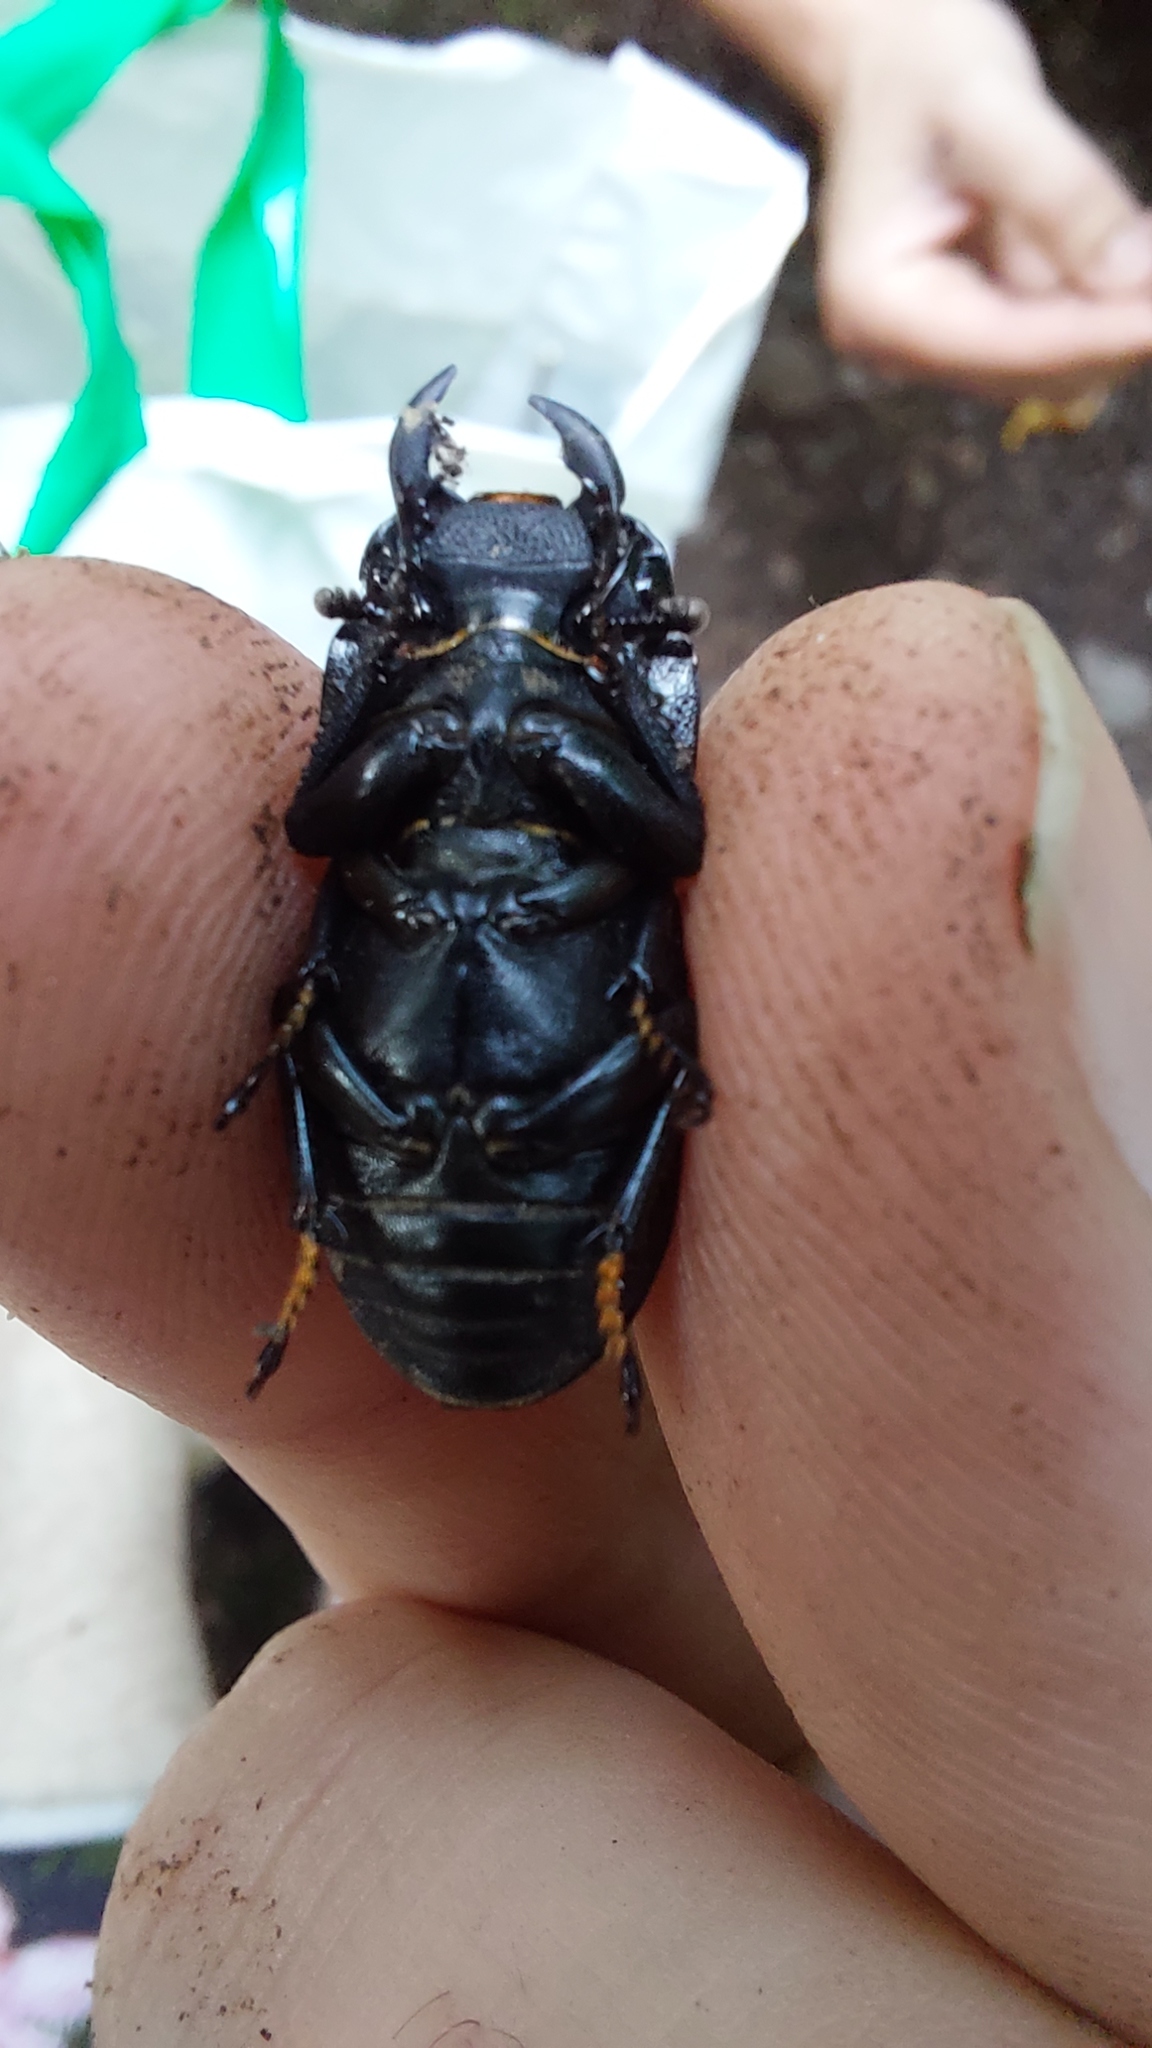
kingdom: Animalia
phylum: Arthropoda
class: Insecta
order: Coleoptera
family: Lucanidae
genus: Dorcus
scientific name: Dorcus parallelipipedus
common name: Lesser stag beetle
